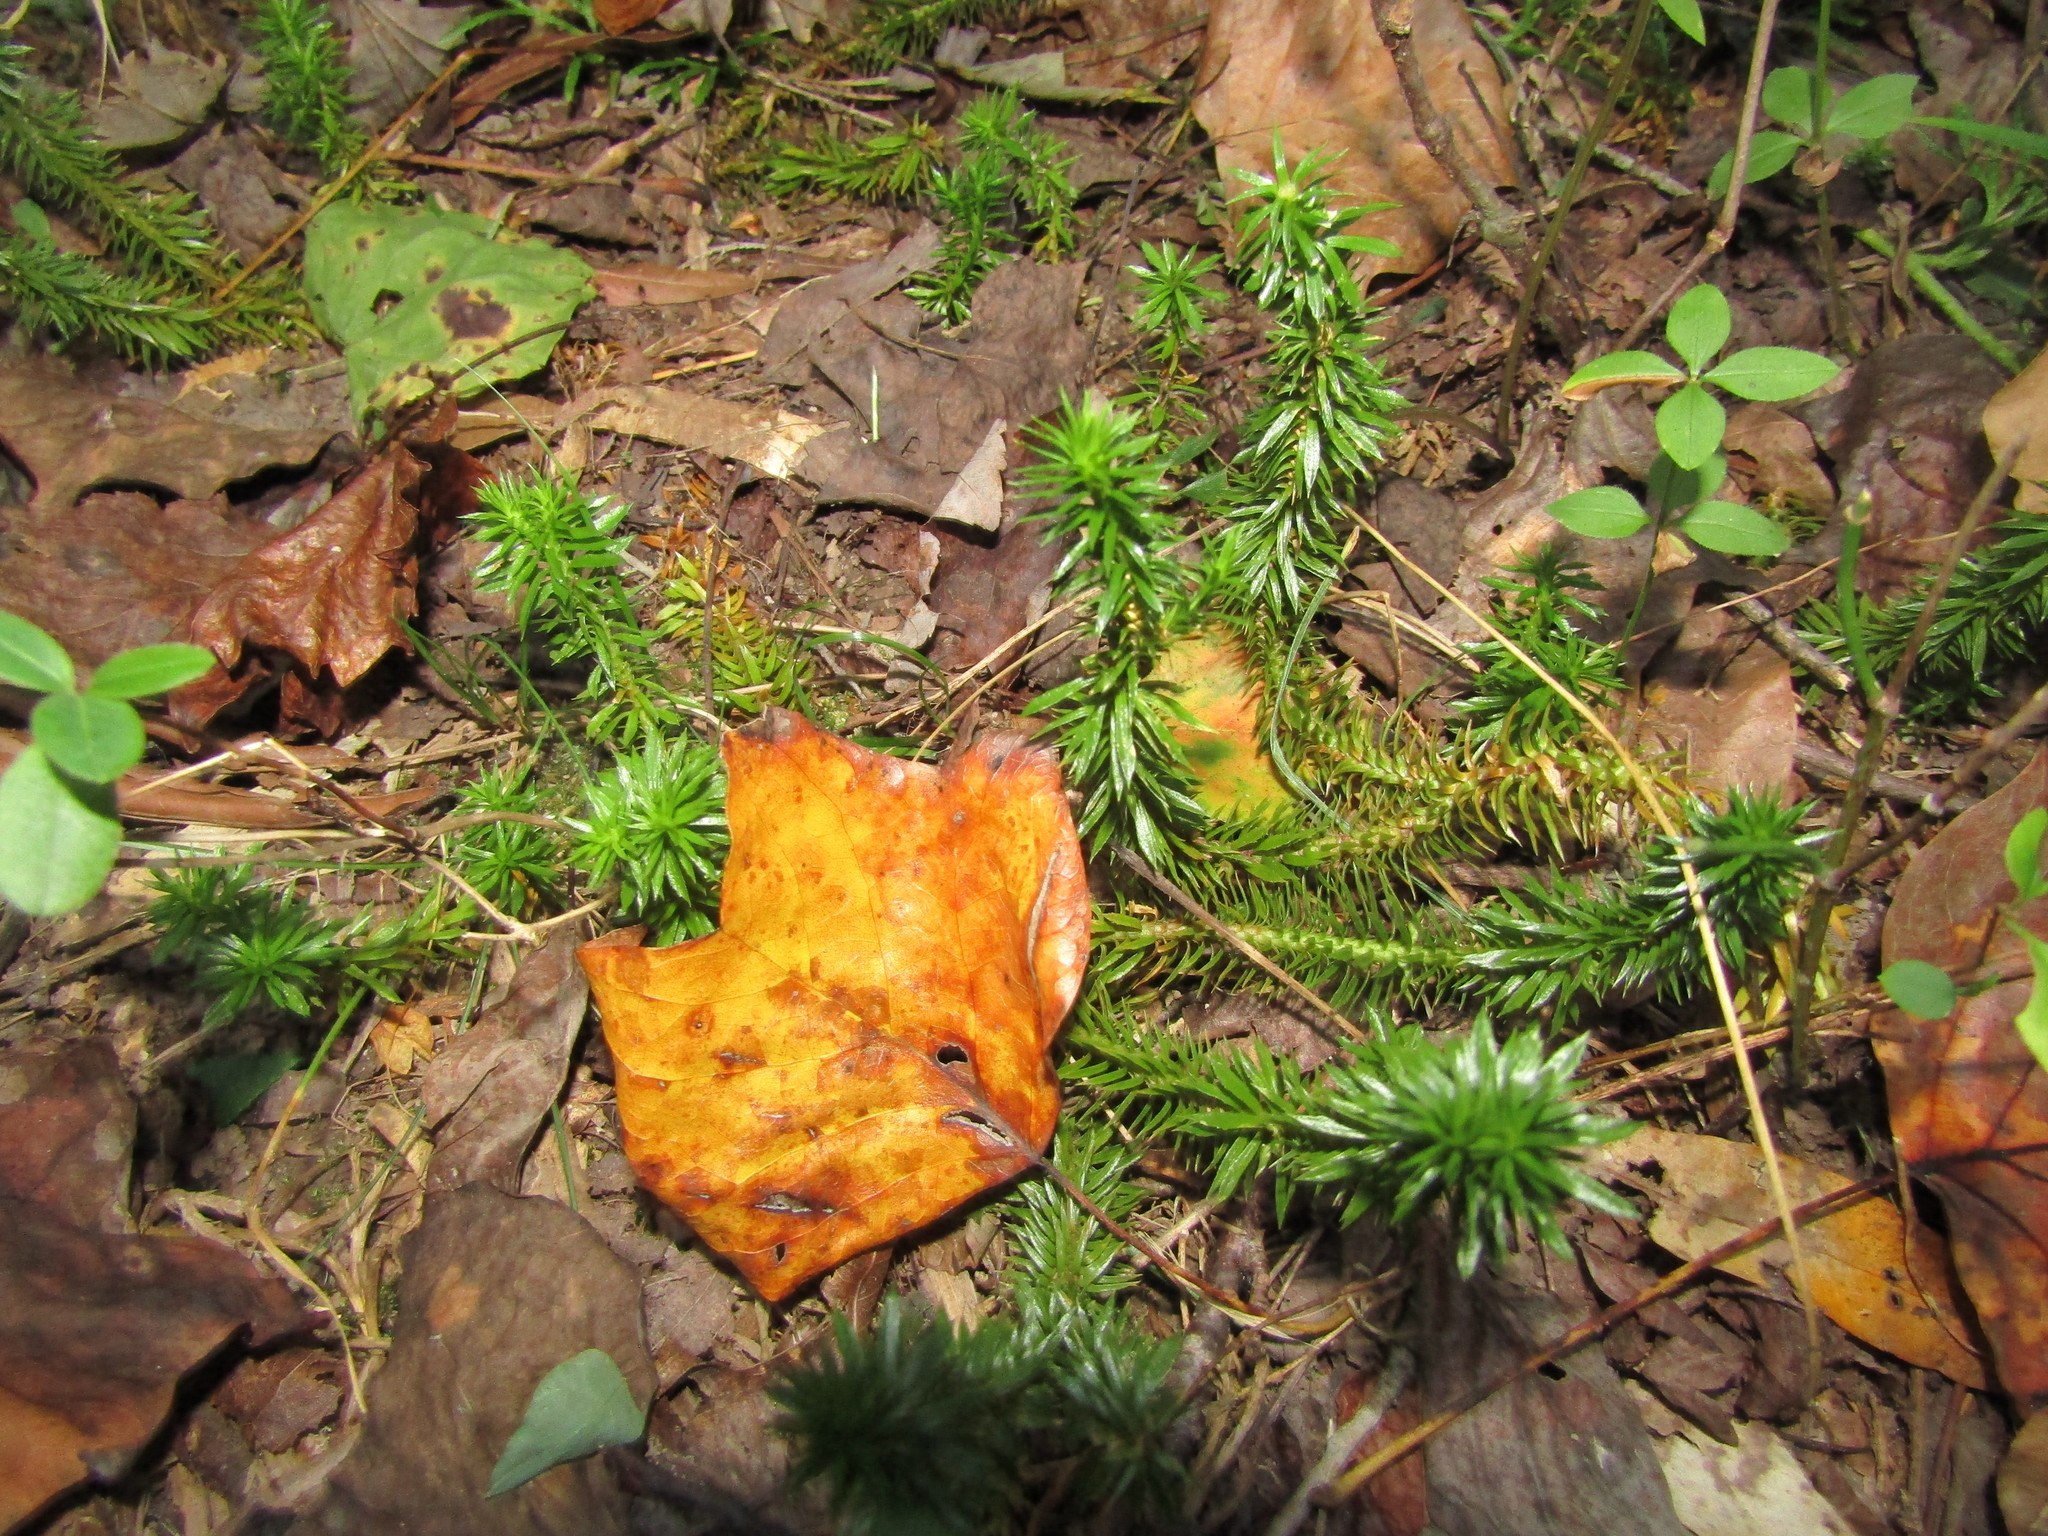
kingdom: Plantae
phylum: Tracheophyta
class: Lycopodiopsida
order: Lycopodiales
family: Lycopodiaceae
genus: Huperzia
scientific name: Huperzia lucidula
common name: Shining clubmoss
